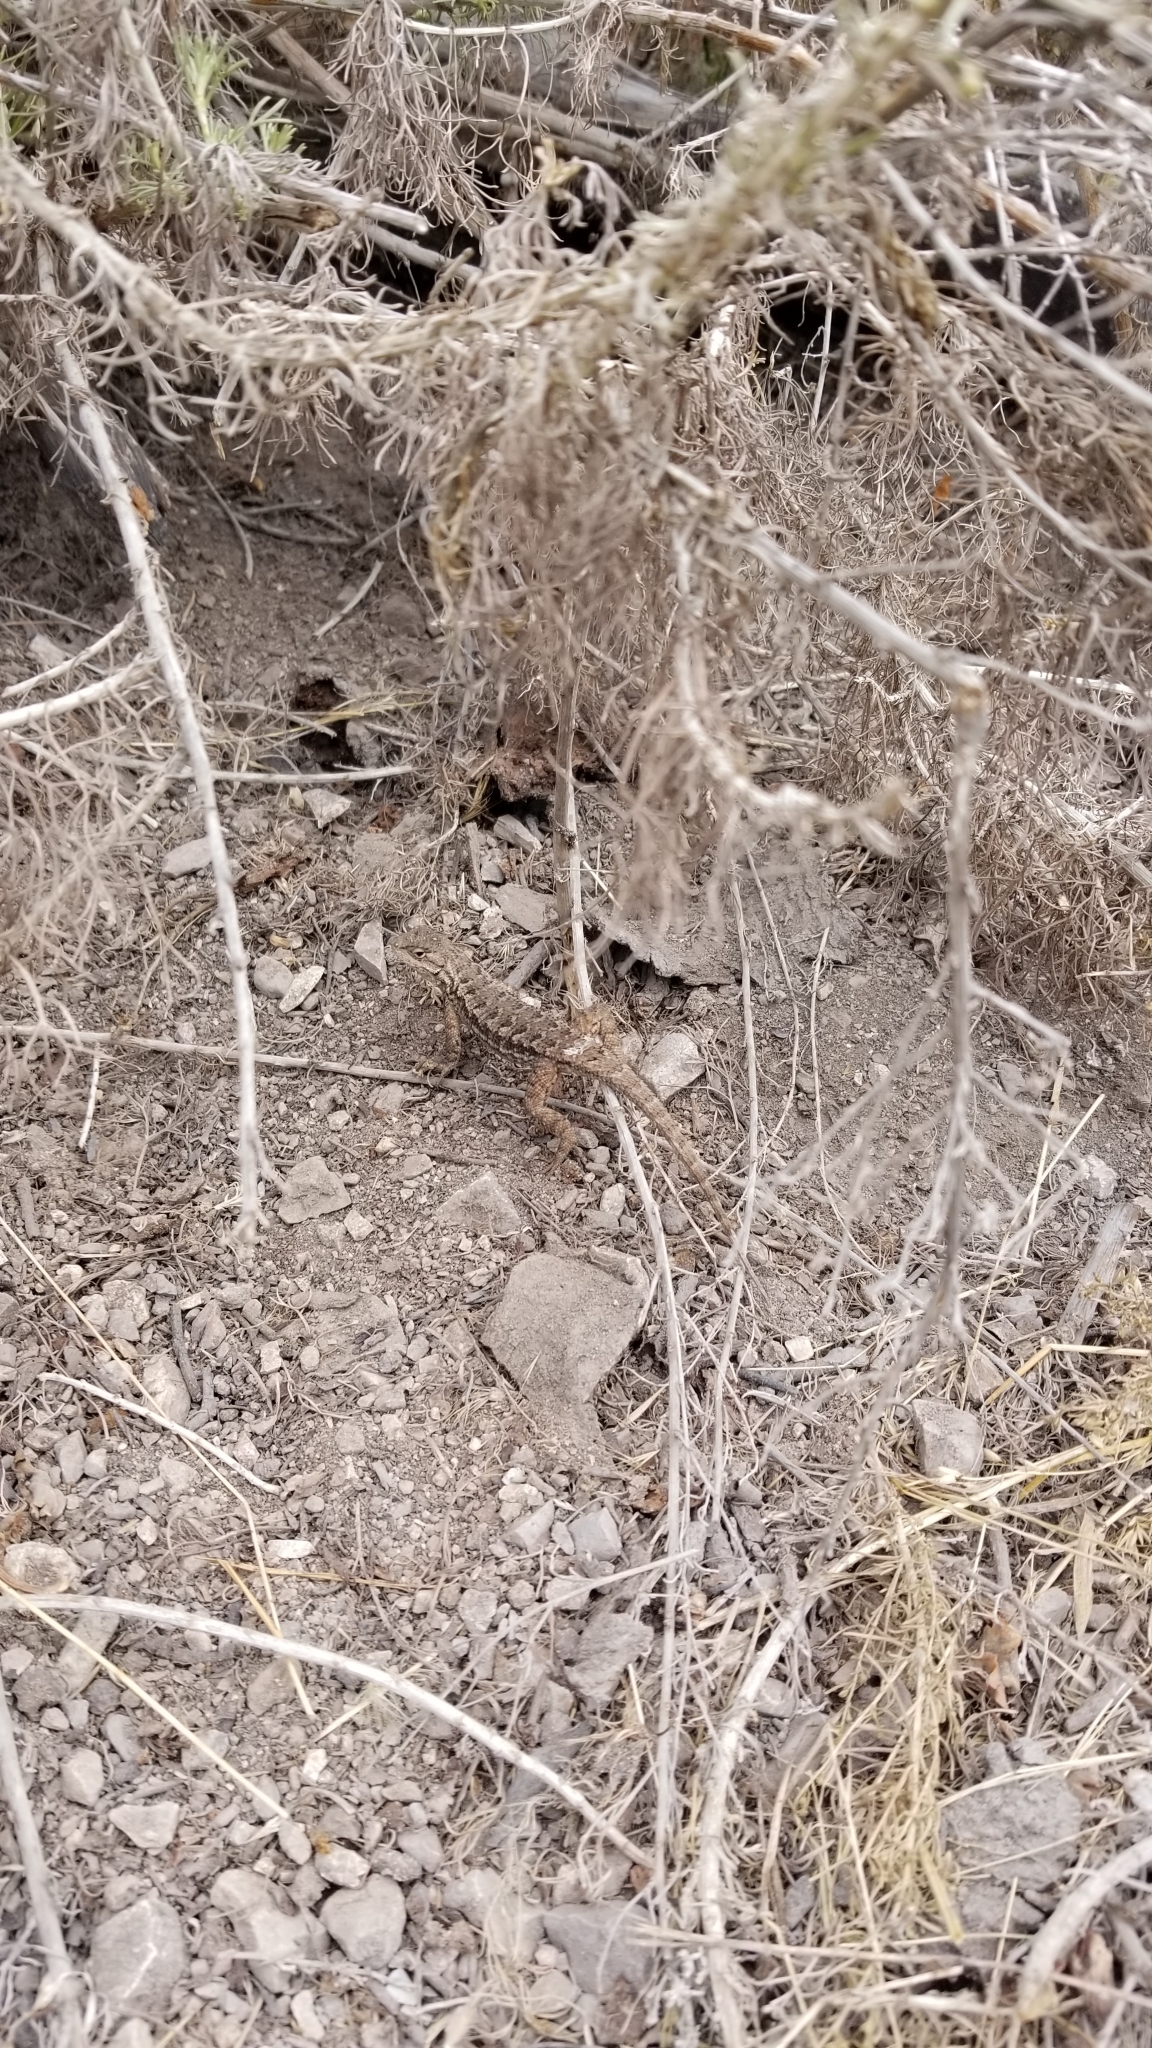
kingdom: Animalia
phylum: Chordata
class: Squamata
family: Phrynosomatidae
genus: Sceloporus
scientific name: Sceloporus occidentalis
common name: Western fence lizard
